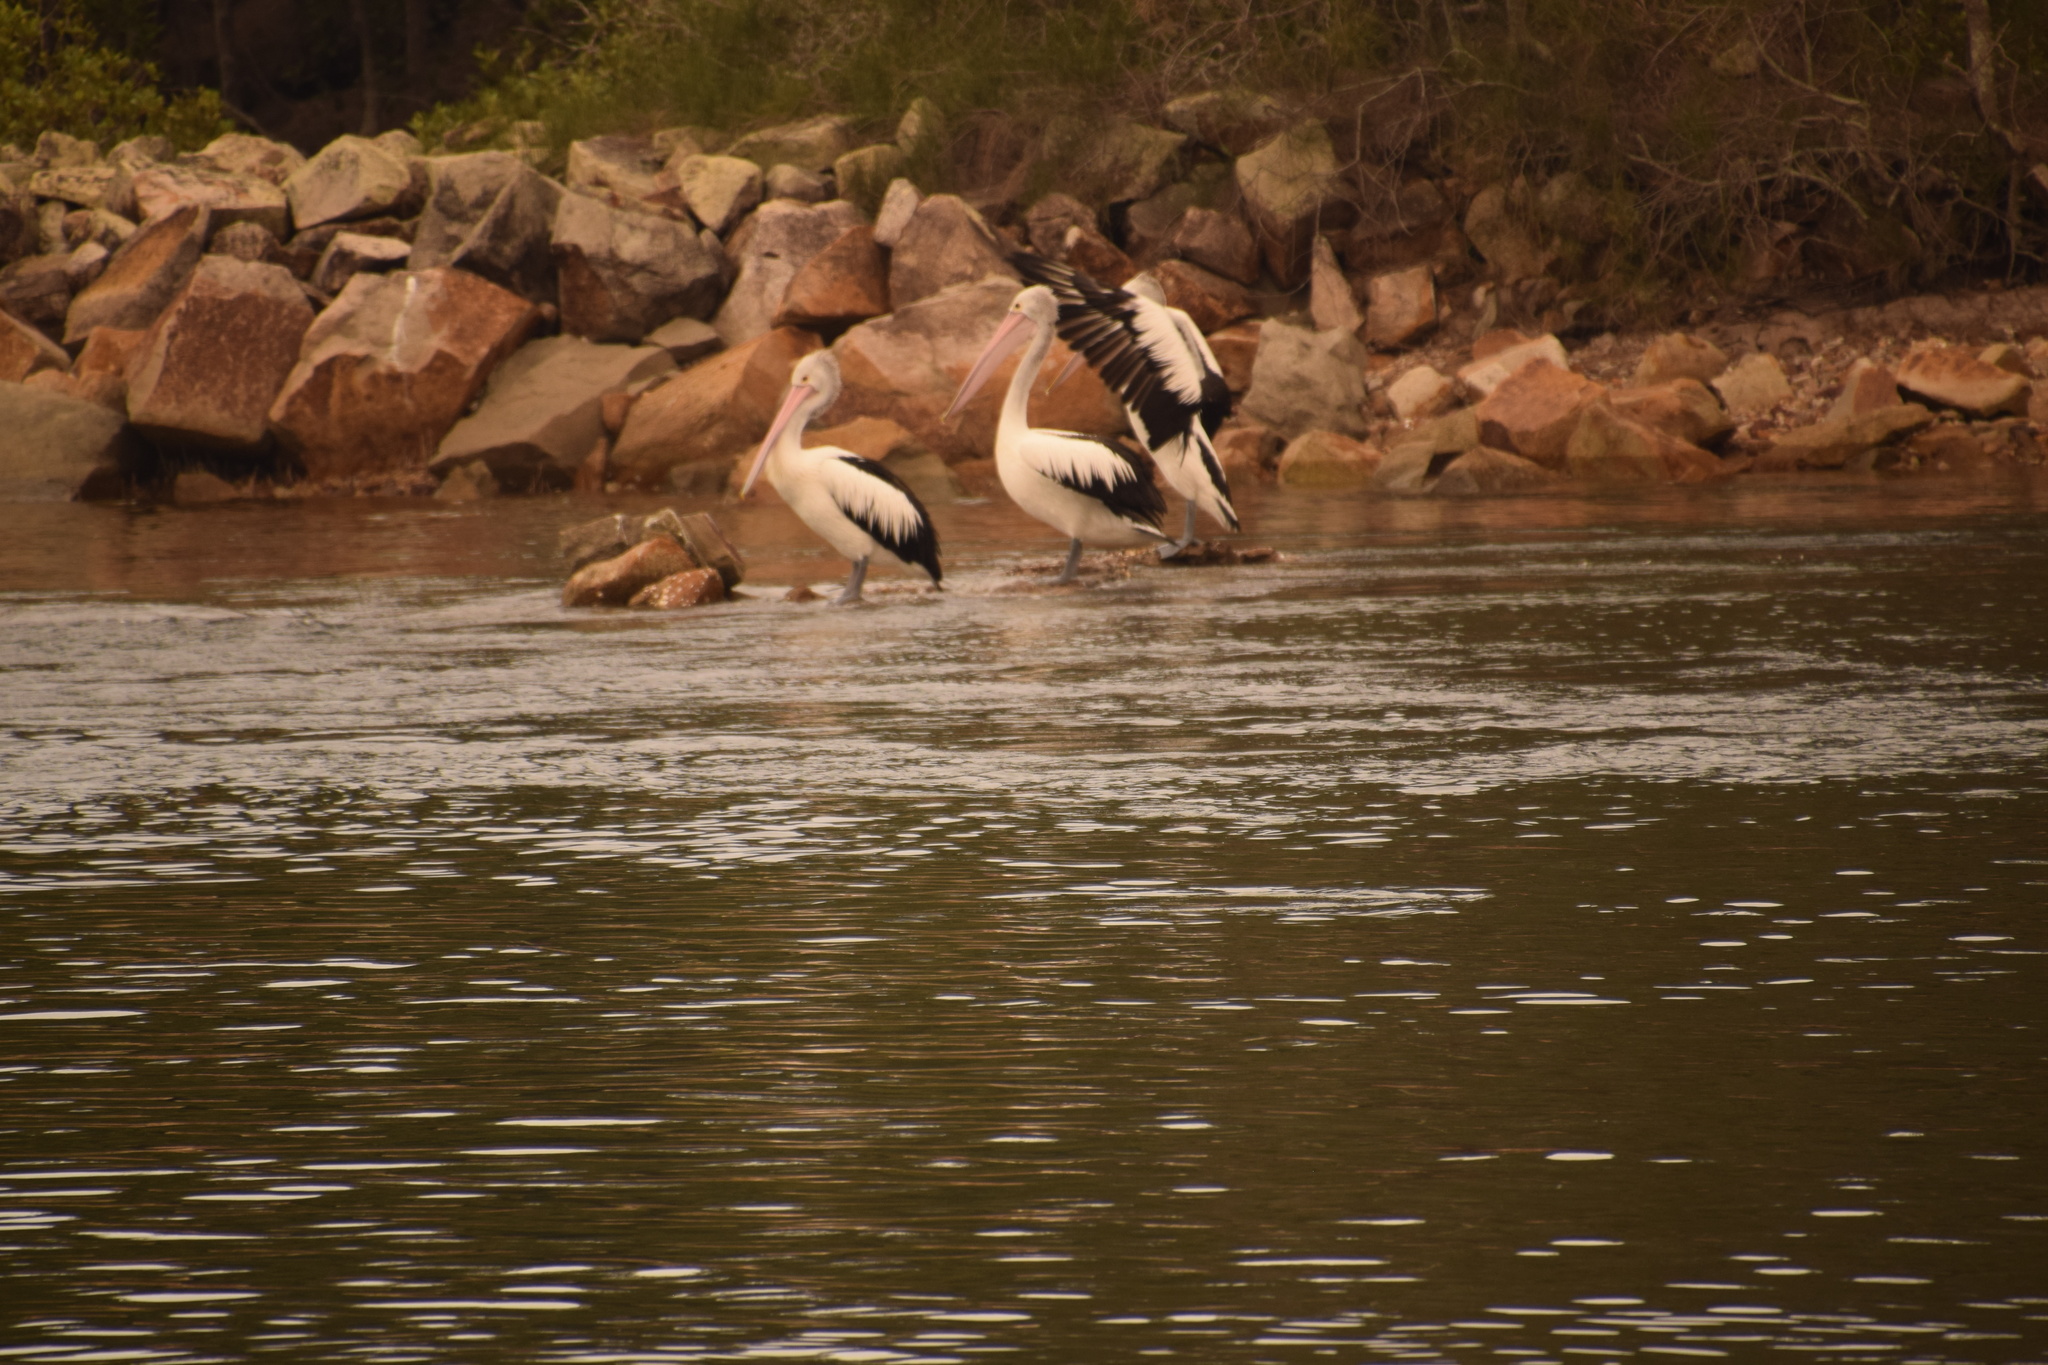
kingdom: Animalia
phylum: Chordata
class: Aves
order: Pelecaniformes
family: Pelecanidae
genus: Pelecanus
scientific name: Pelecanus conspicillatus
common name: Australian pelican
